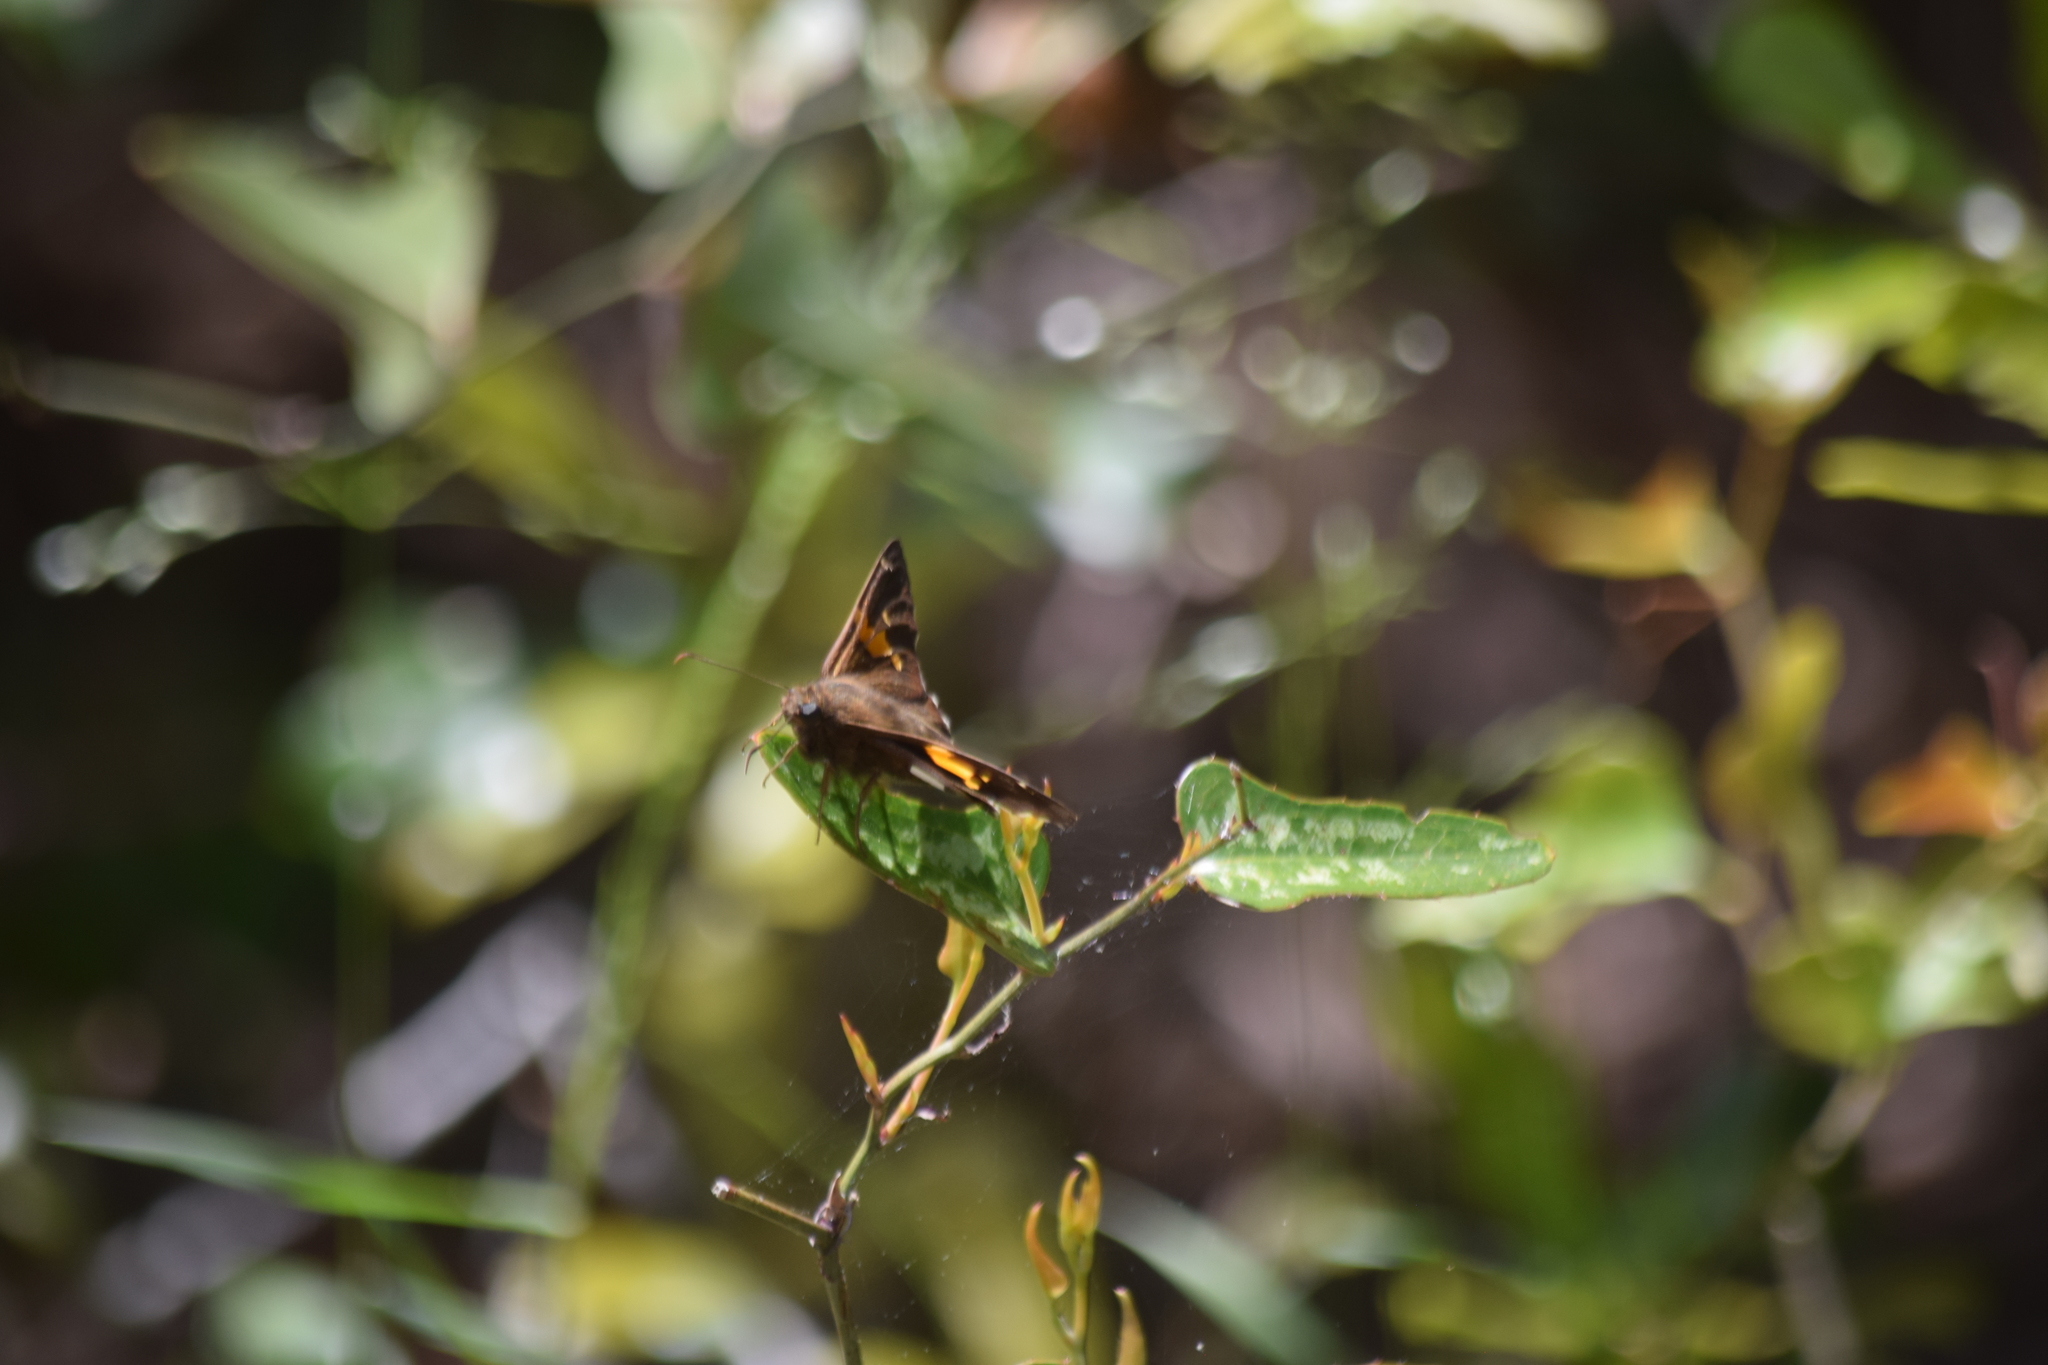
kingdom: Animalia
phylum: Arthropoda
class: Insecta
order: Lepidoptera
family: Hesperiidae
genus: Epargyreus
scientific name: Epargyreus clarus
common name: Silver-spotted skipper
